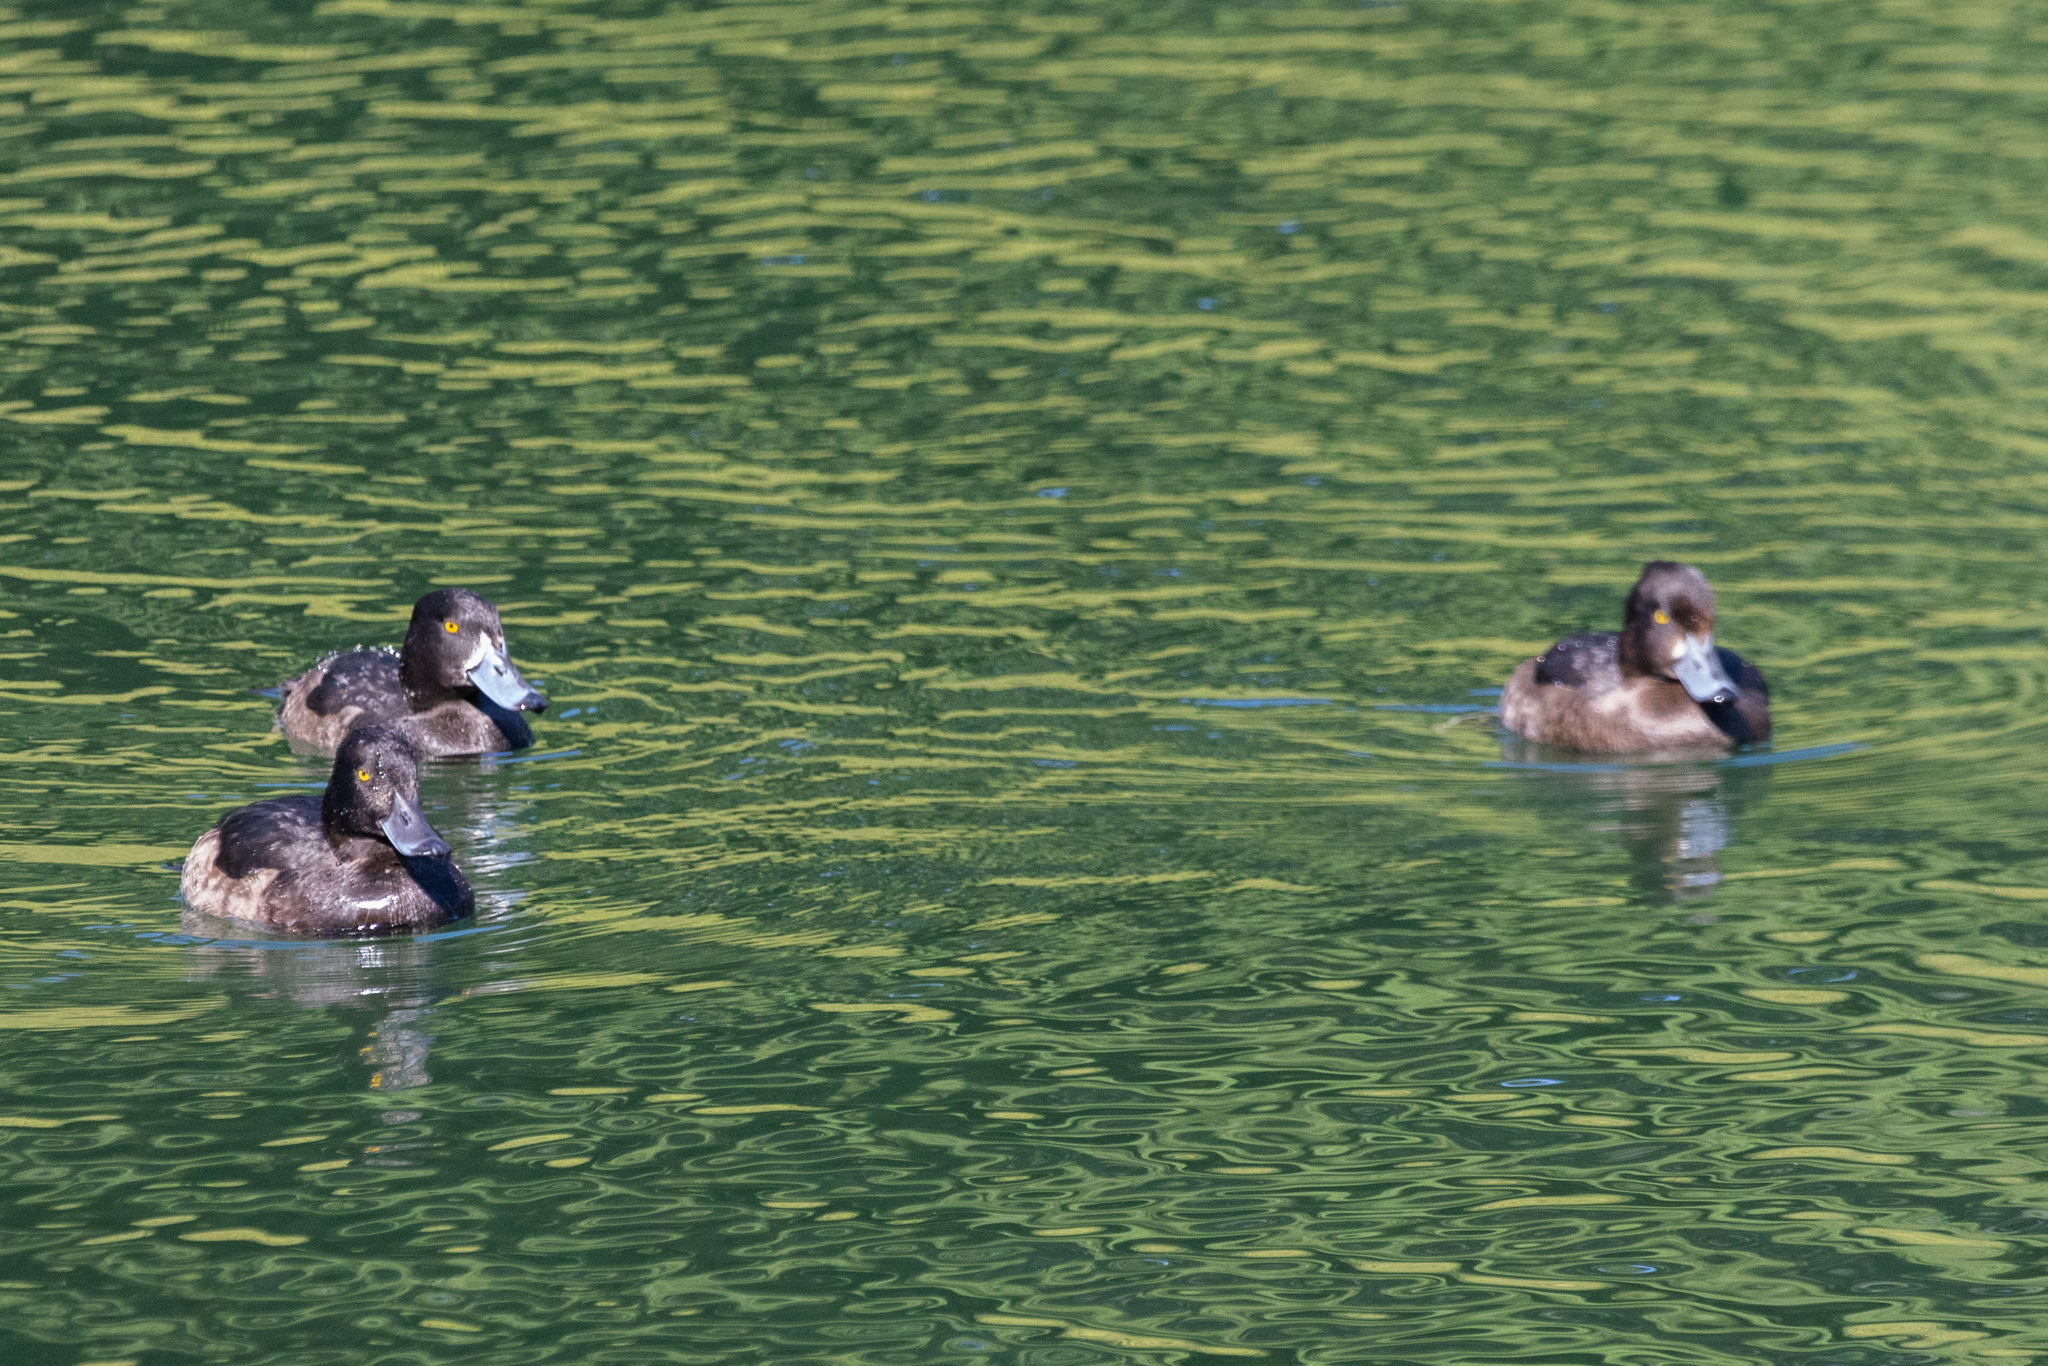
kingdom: Animalia
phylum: Chordata
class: Aves
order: Anseriformes
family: Anatidae
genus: Aythya
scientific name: Aythya fuligula
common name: Tufted duck
